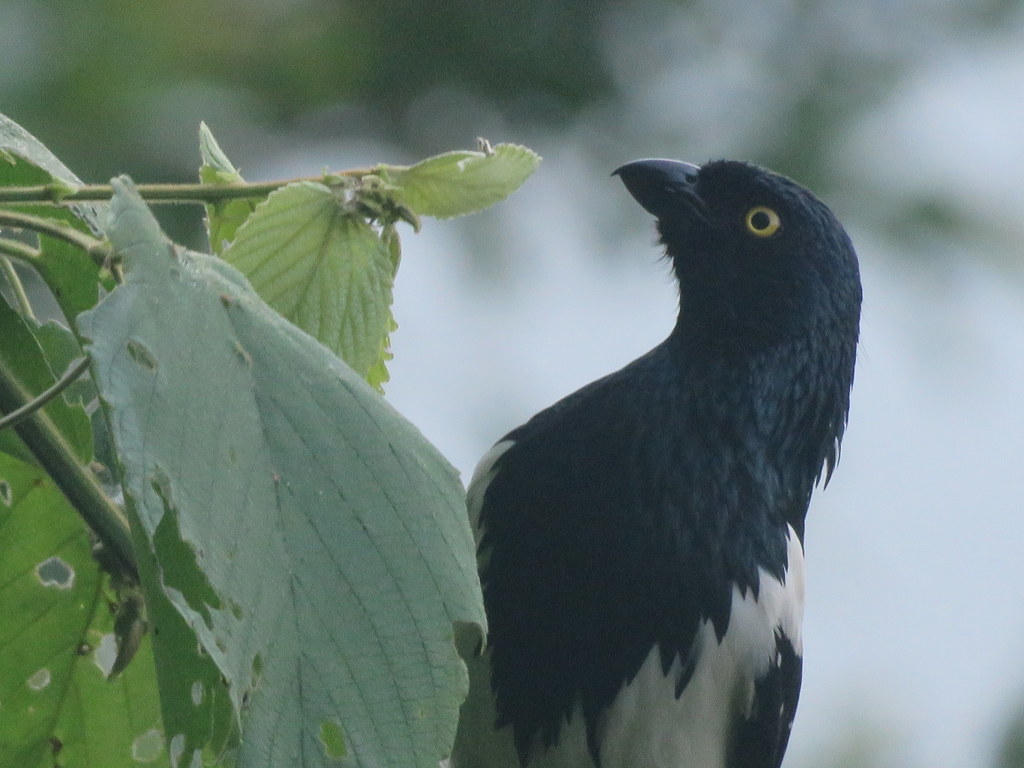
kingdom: Animalia
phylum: Chordata
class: Aves
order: Passeriformes
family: Thraupidae
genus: Cissopis
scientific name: Cissopis leverianus
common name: Magpie tanager
